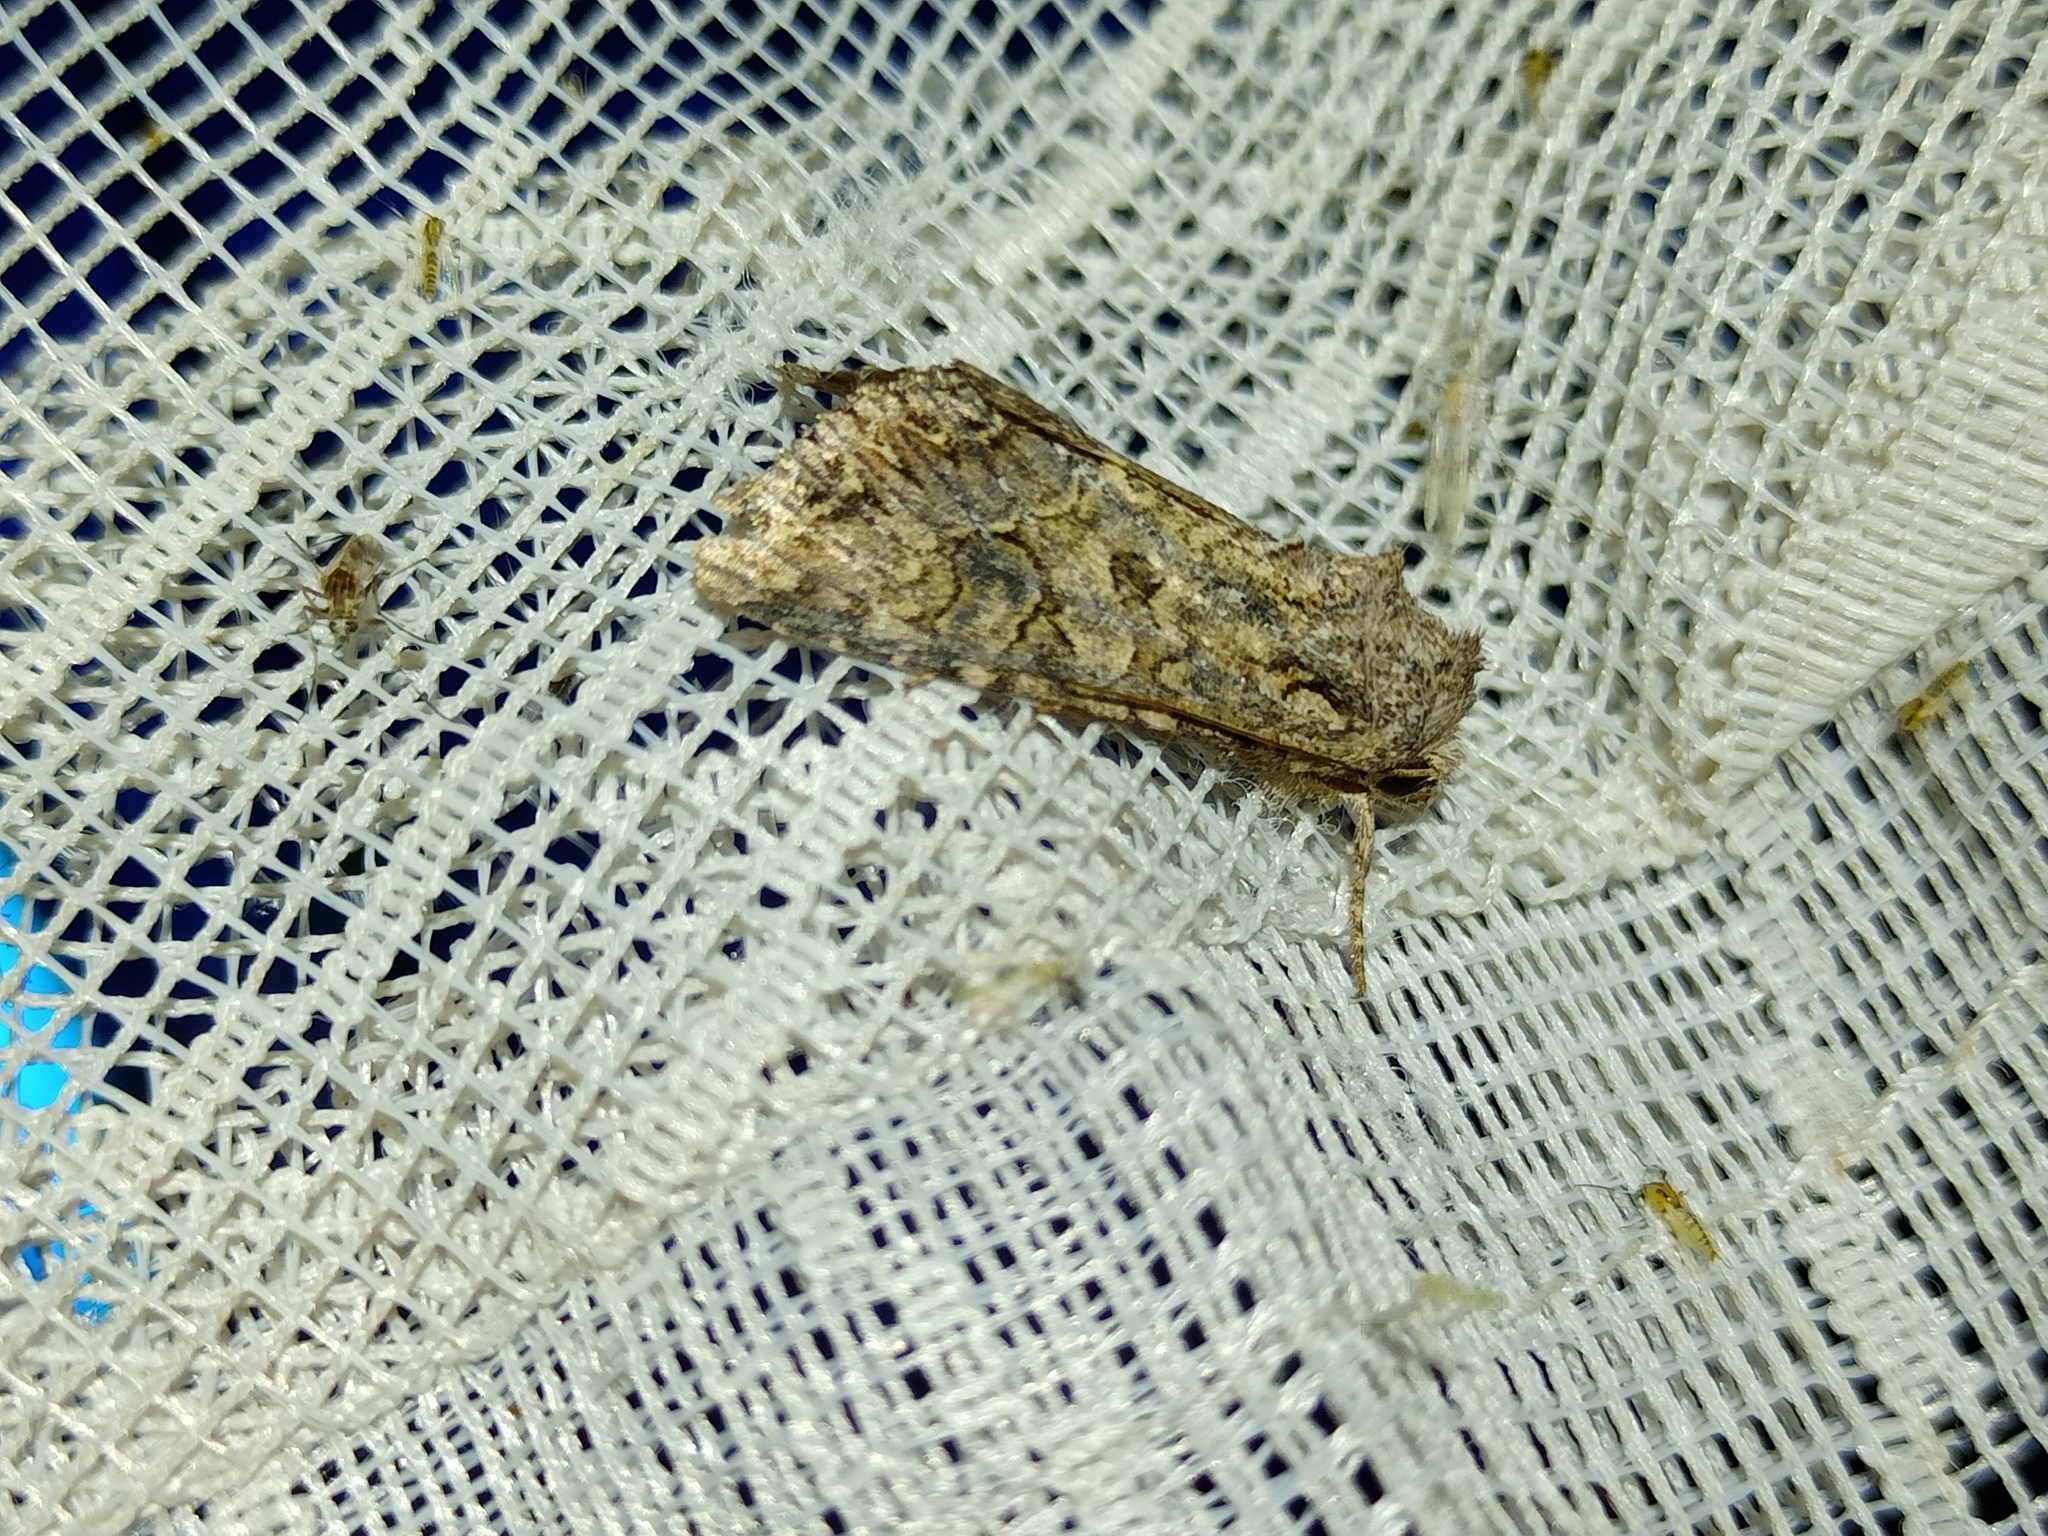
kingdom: Animalia
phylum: Arthropoda
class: Insecta
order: Lepidoptera
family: Noctuidae
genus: Anarta
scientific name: Anarta trifolii
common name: Clover cutworm moth
